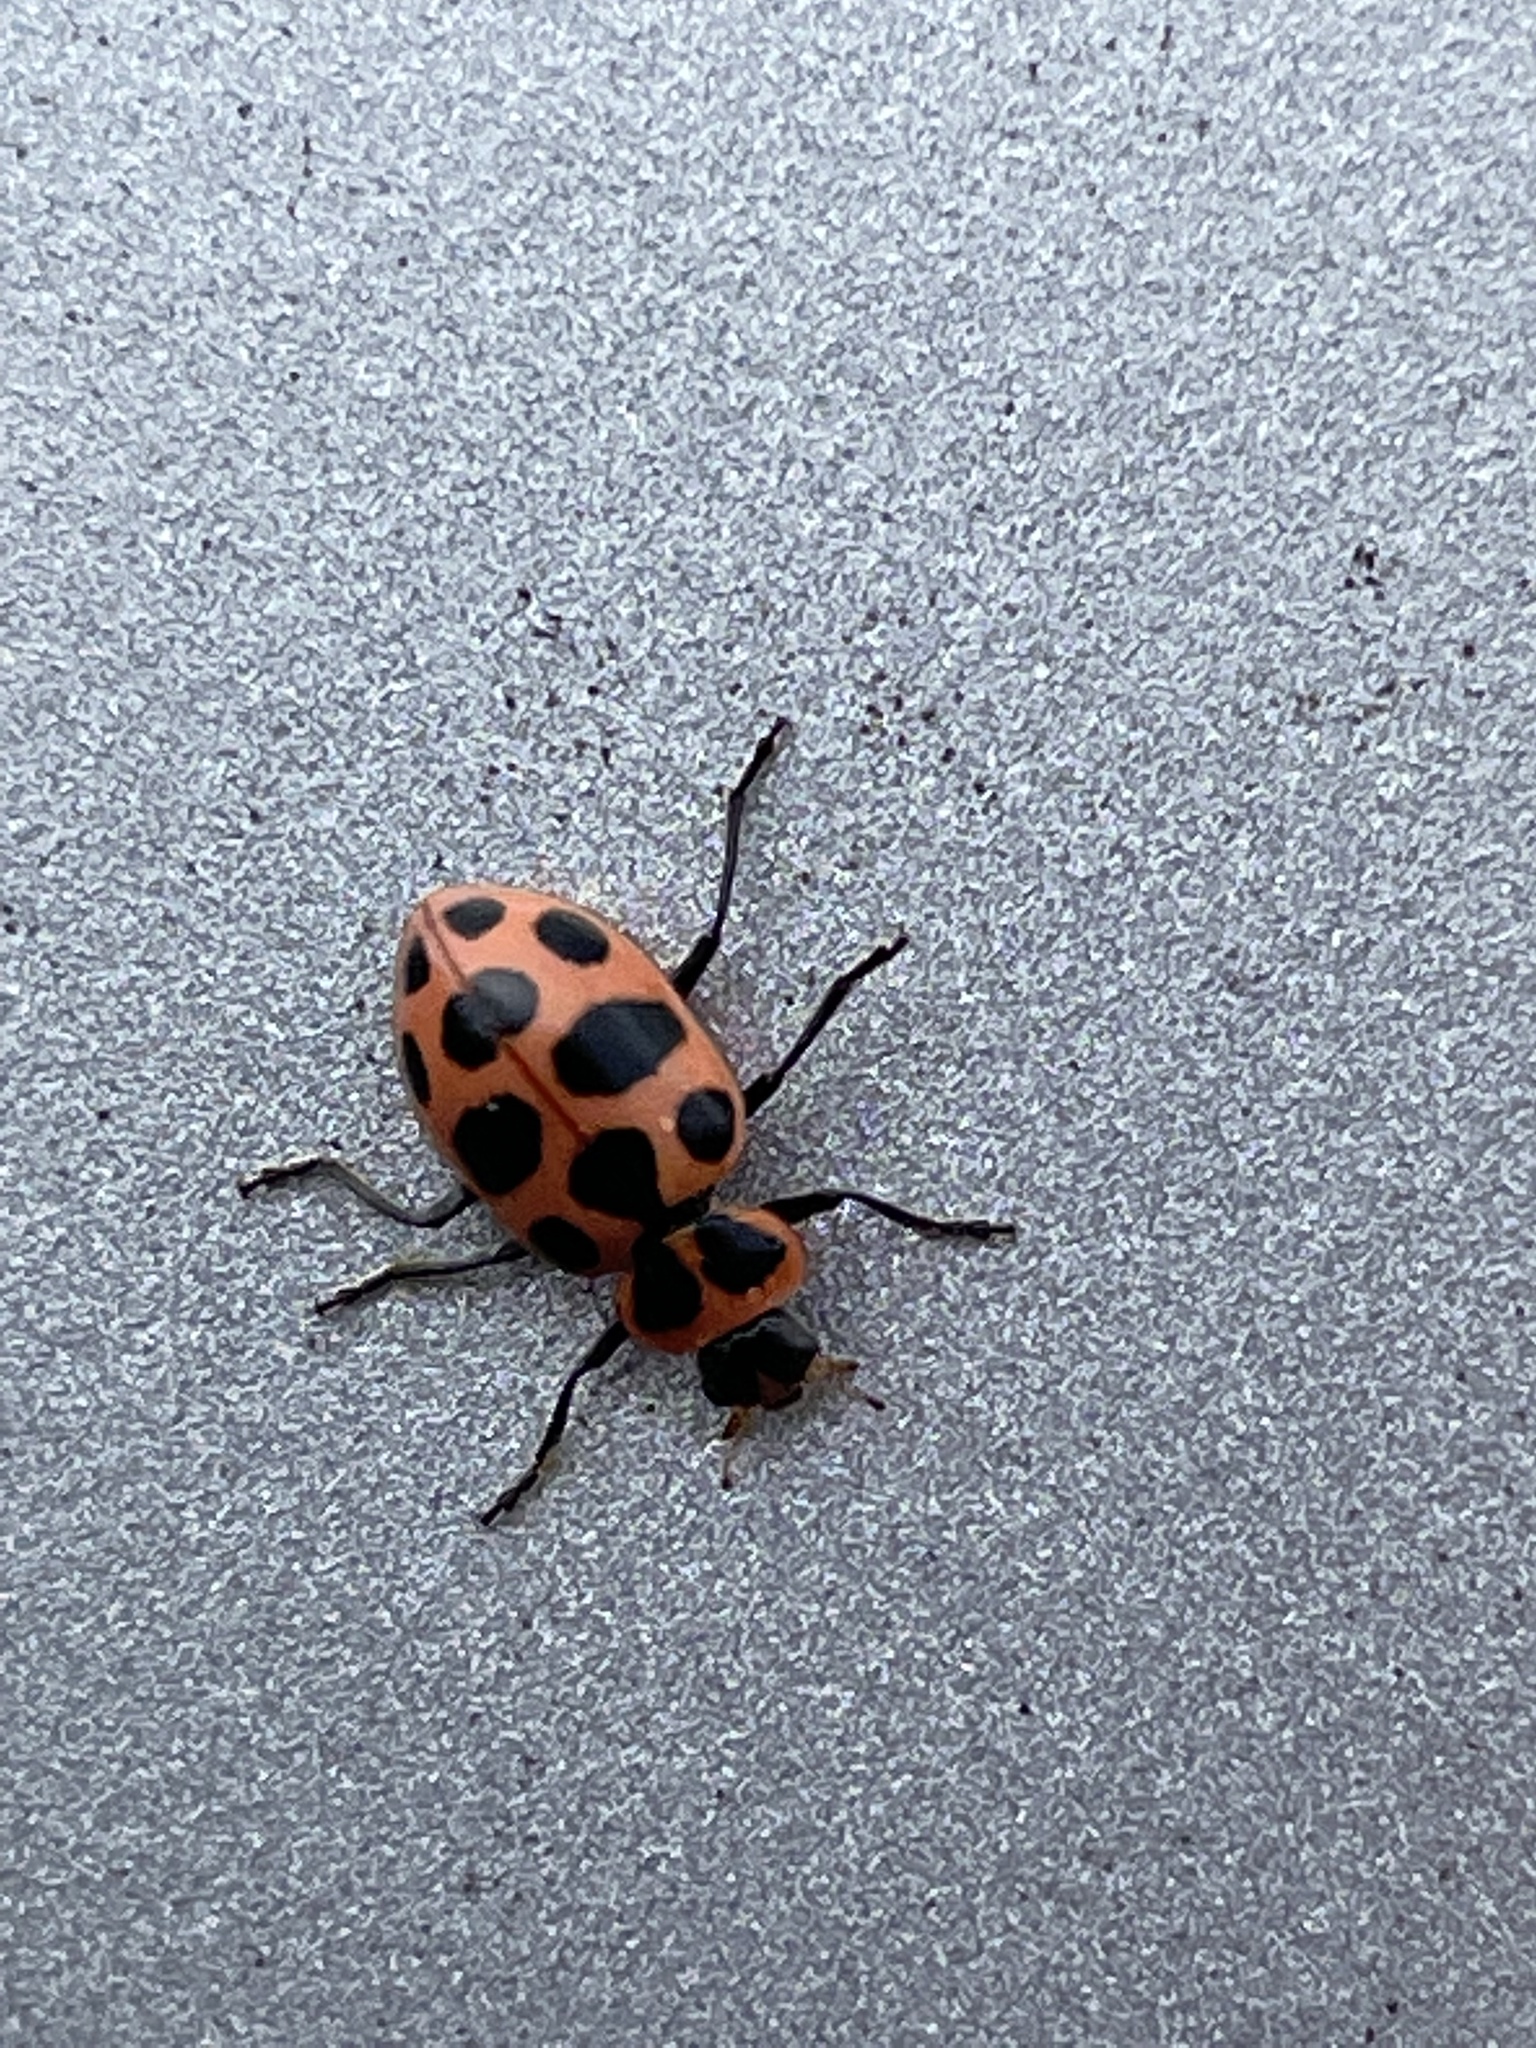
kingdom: Animalia
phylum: Arthropoda
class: Insecta
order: Coleoptera
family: Coccinellidae
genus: Coleomegilla
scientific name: Coleomegilla maculata
